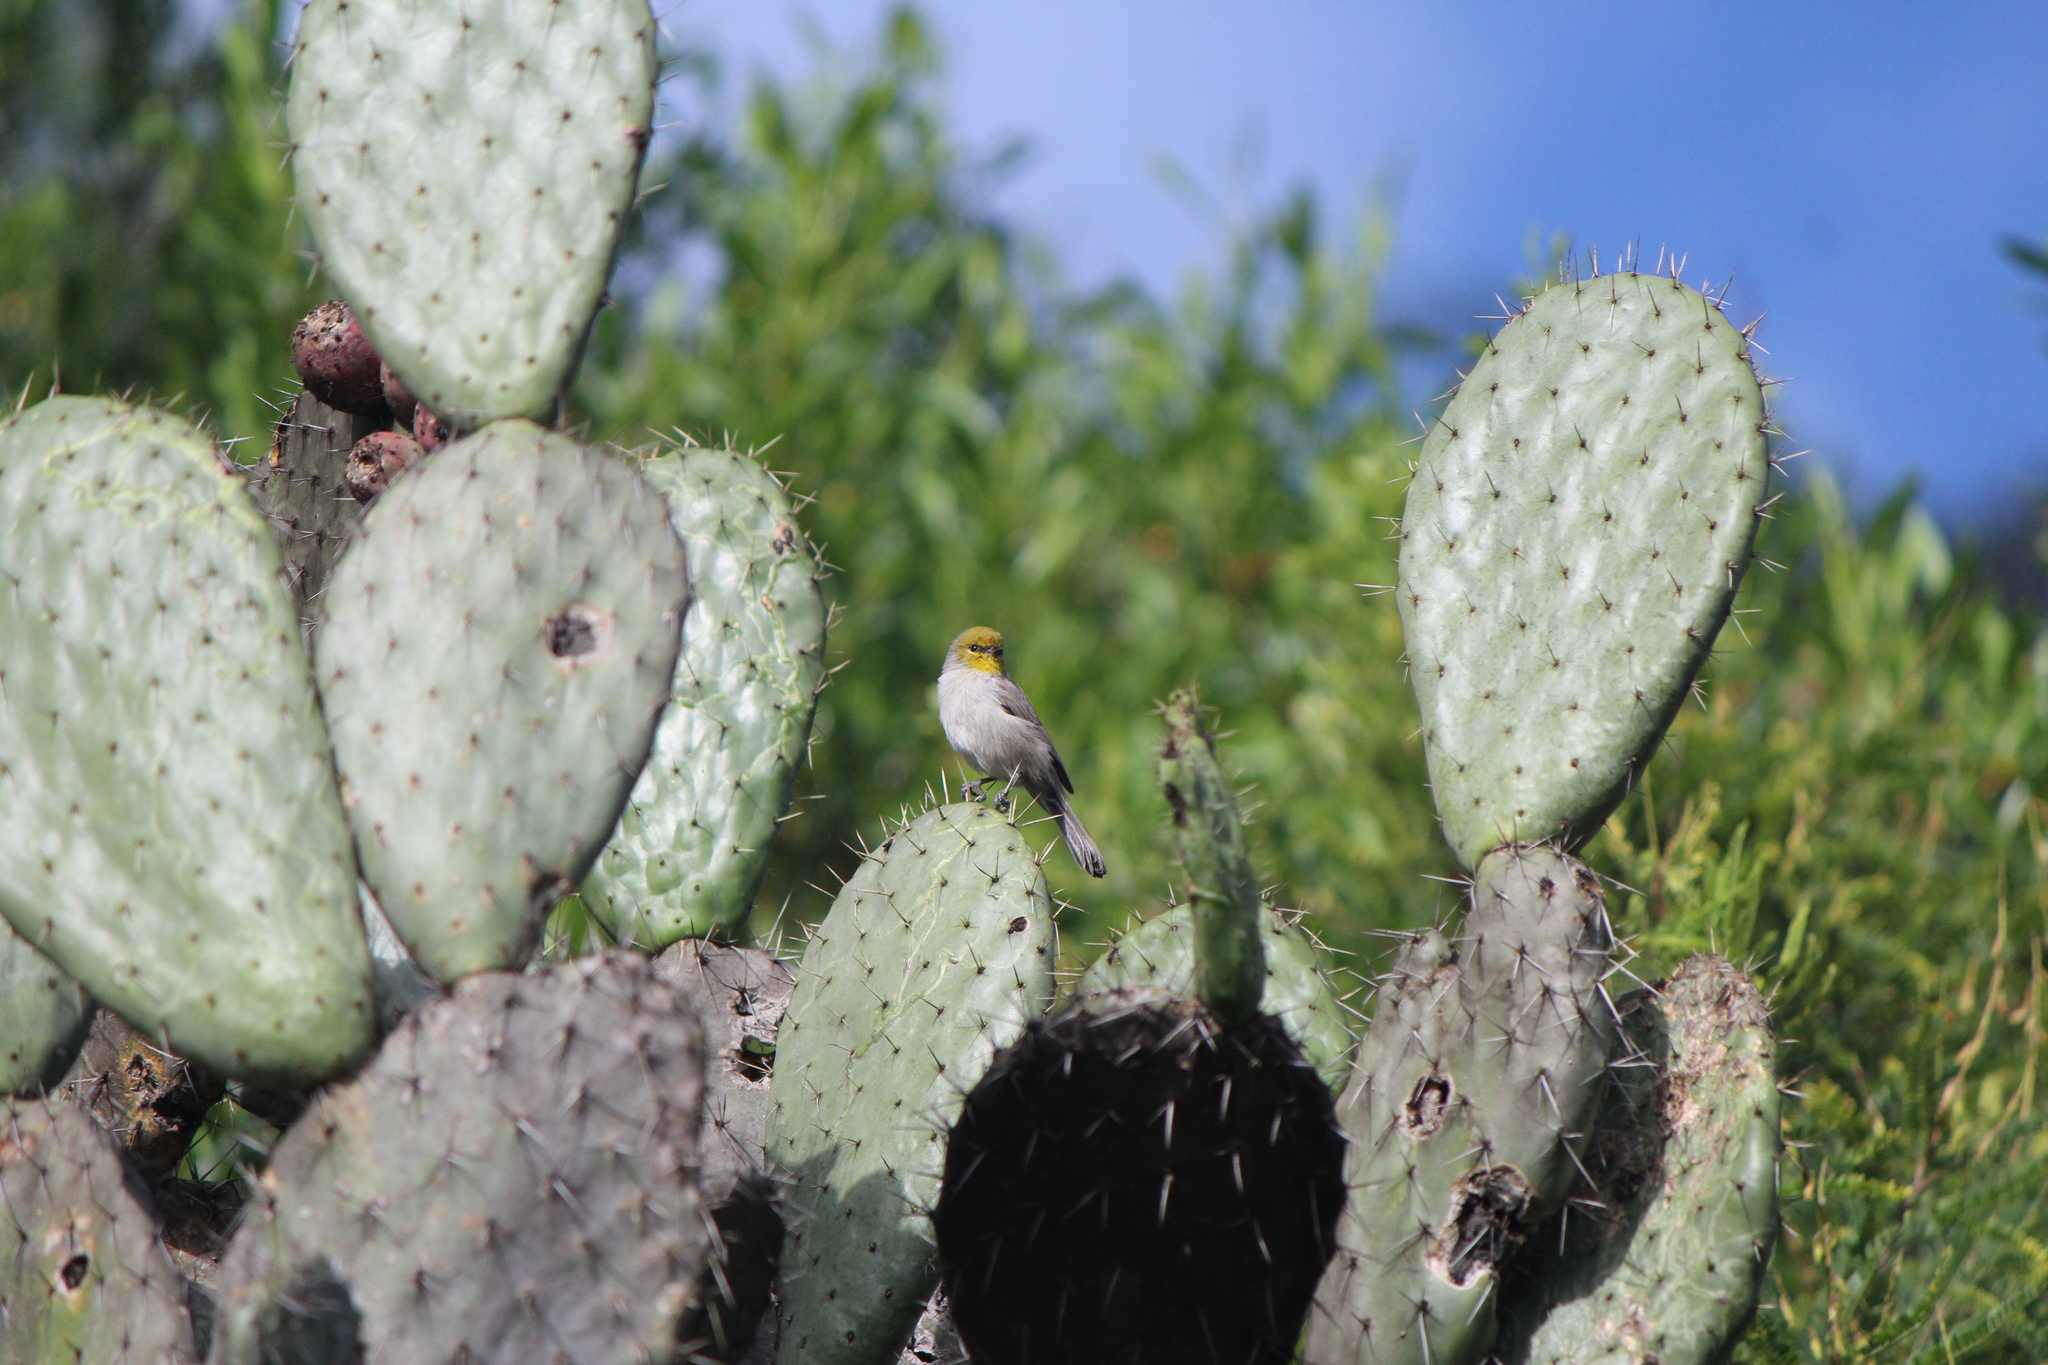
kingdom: Animalia
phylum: Chordata
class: Aves
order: Passeriformes
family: Remizidae
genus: Auriparus
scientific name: Auriparus flaviceps
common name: Verdin
